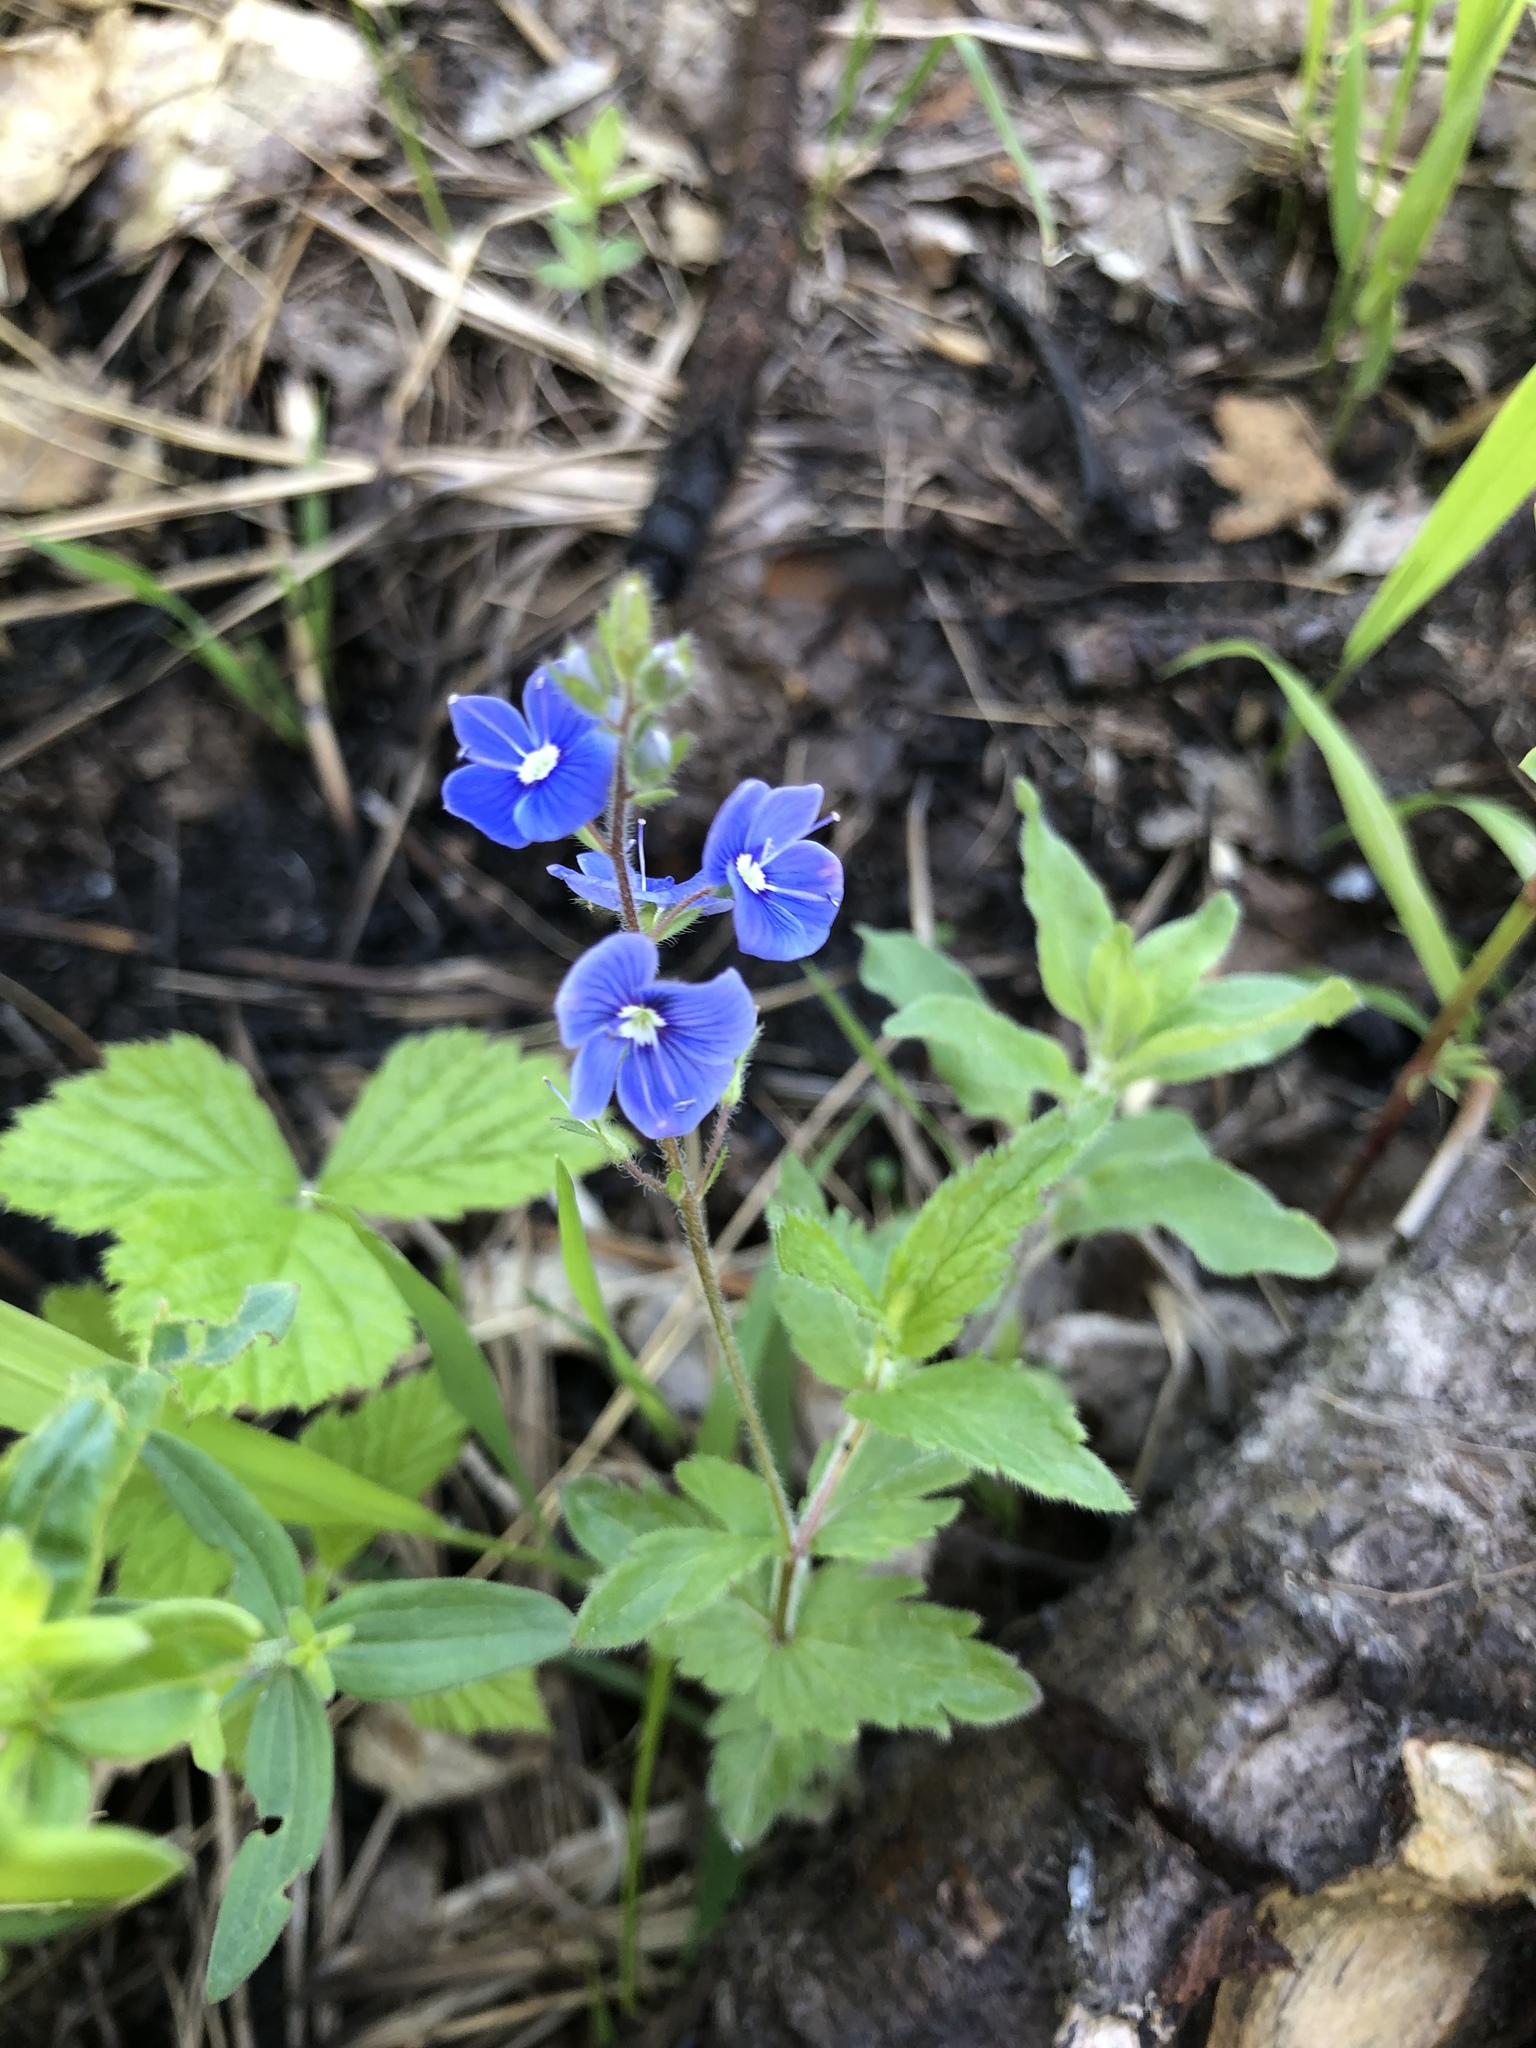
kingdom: Plantae
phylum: Tracheophyta
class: Magnoliopsida
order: Lamiales
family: Plantaginaceae
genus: Veronica
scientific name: Veronica chamaedrys
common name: Germander speedwell
